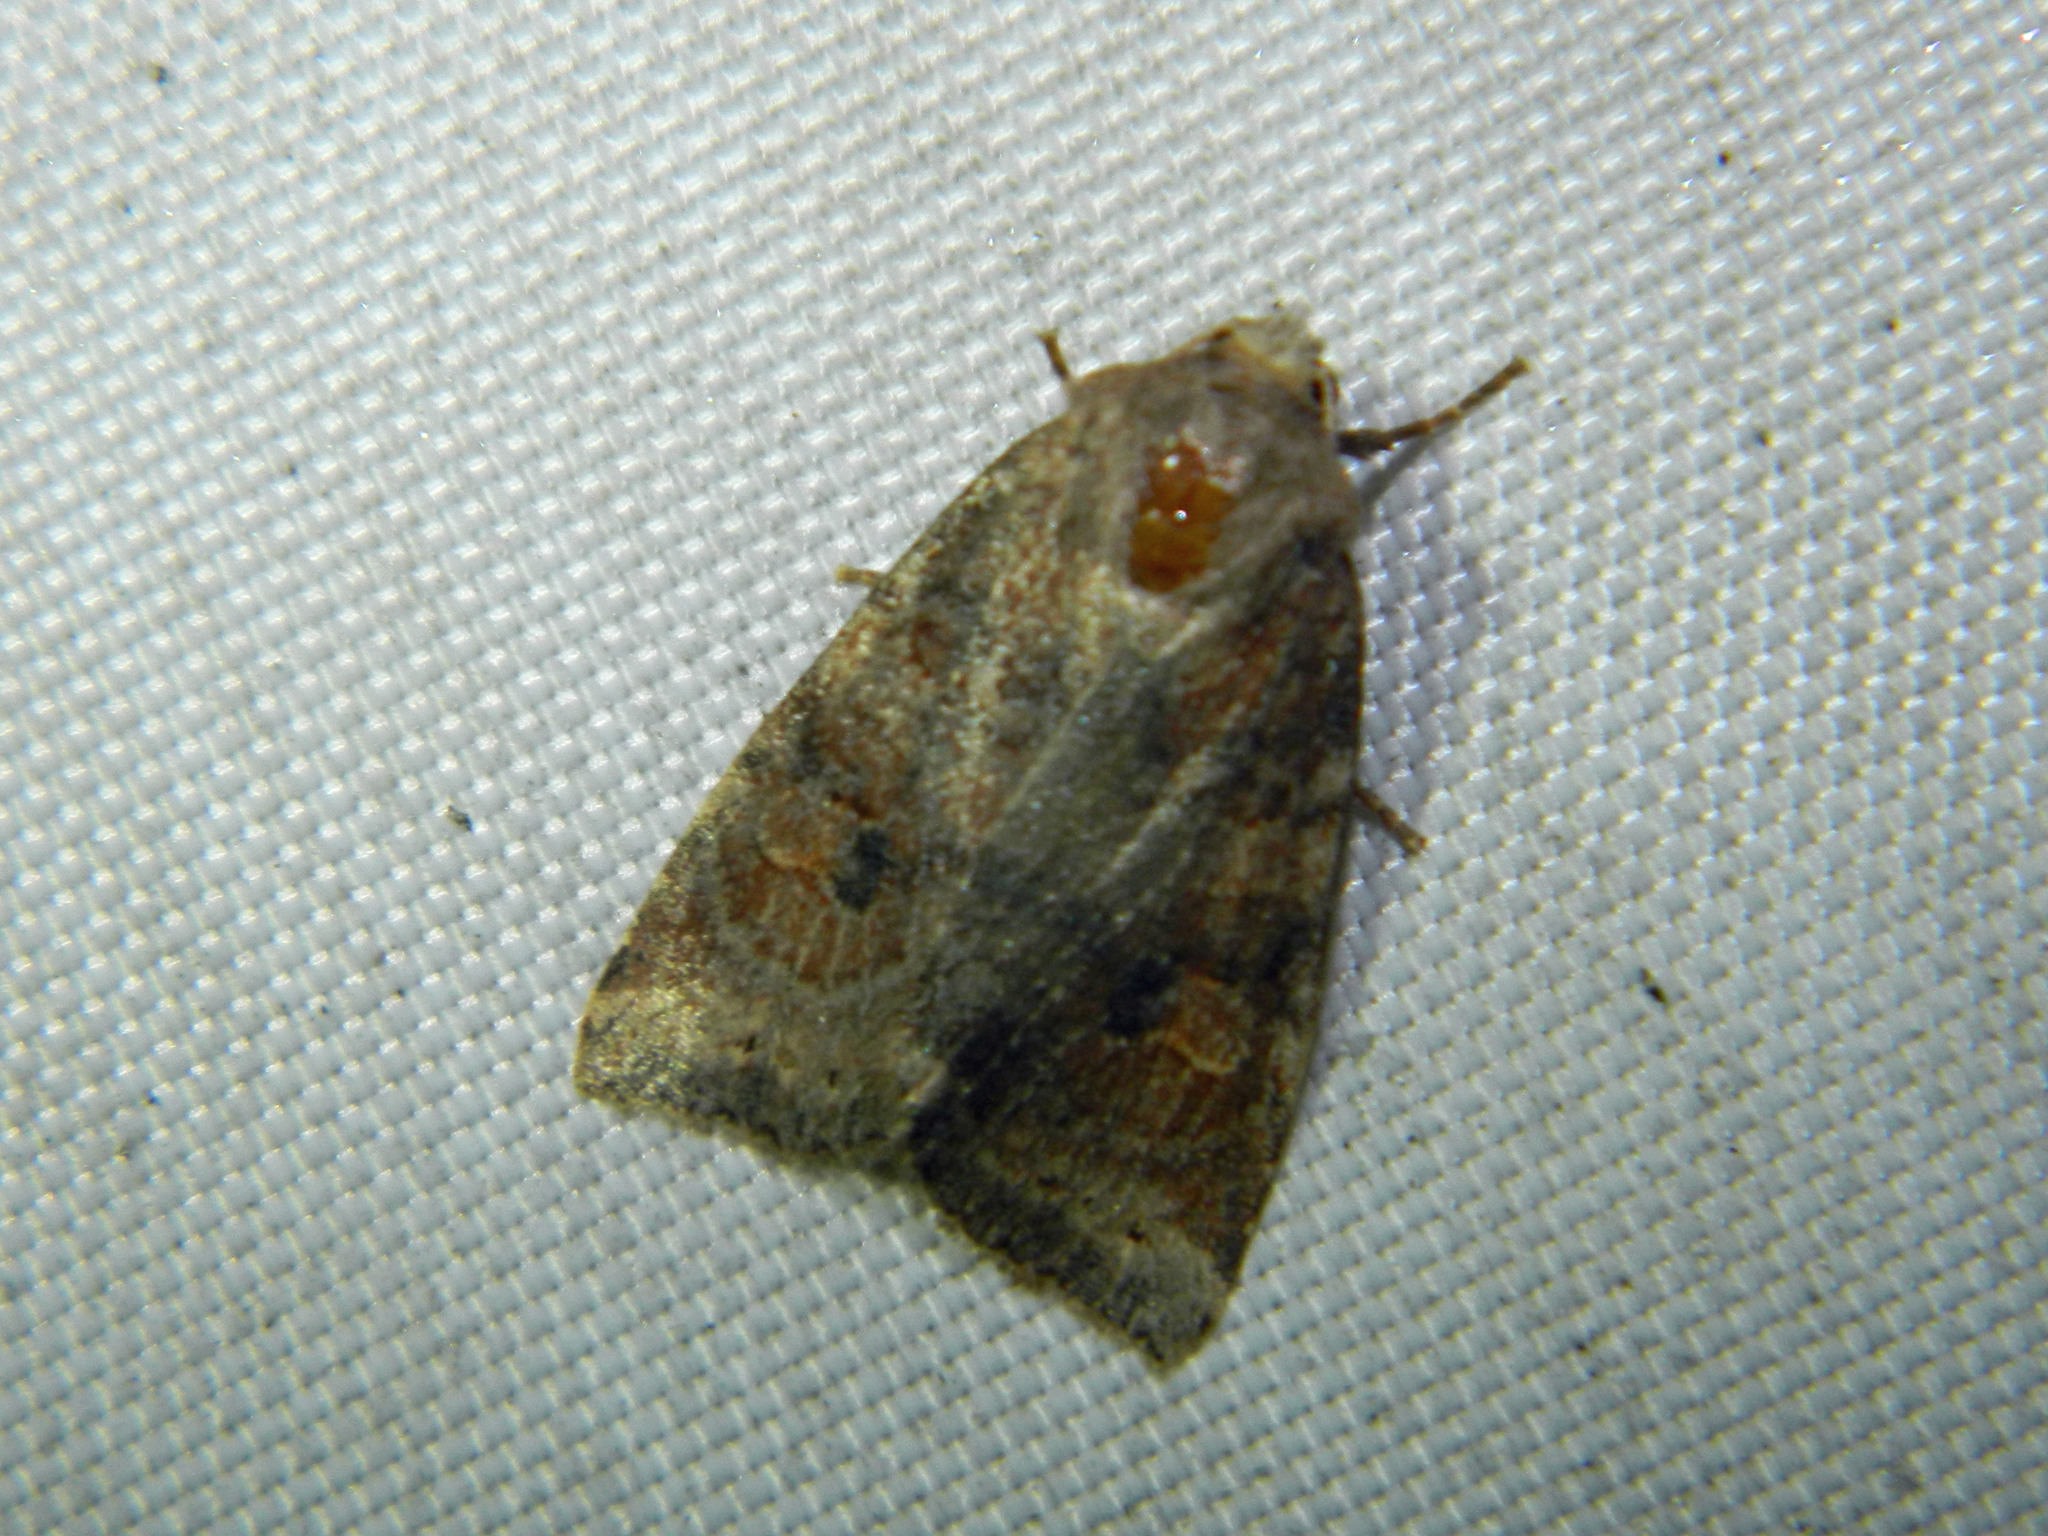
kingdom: Animalia
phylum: Arthropoda
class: Insecta
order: Lepidoptera
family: Noctuidae
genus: Anathix
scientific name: Anathix puta
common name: Puta sallow
